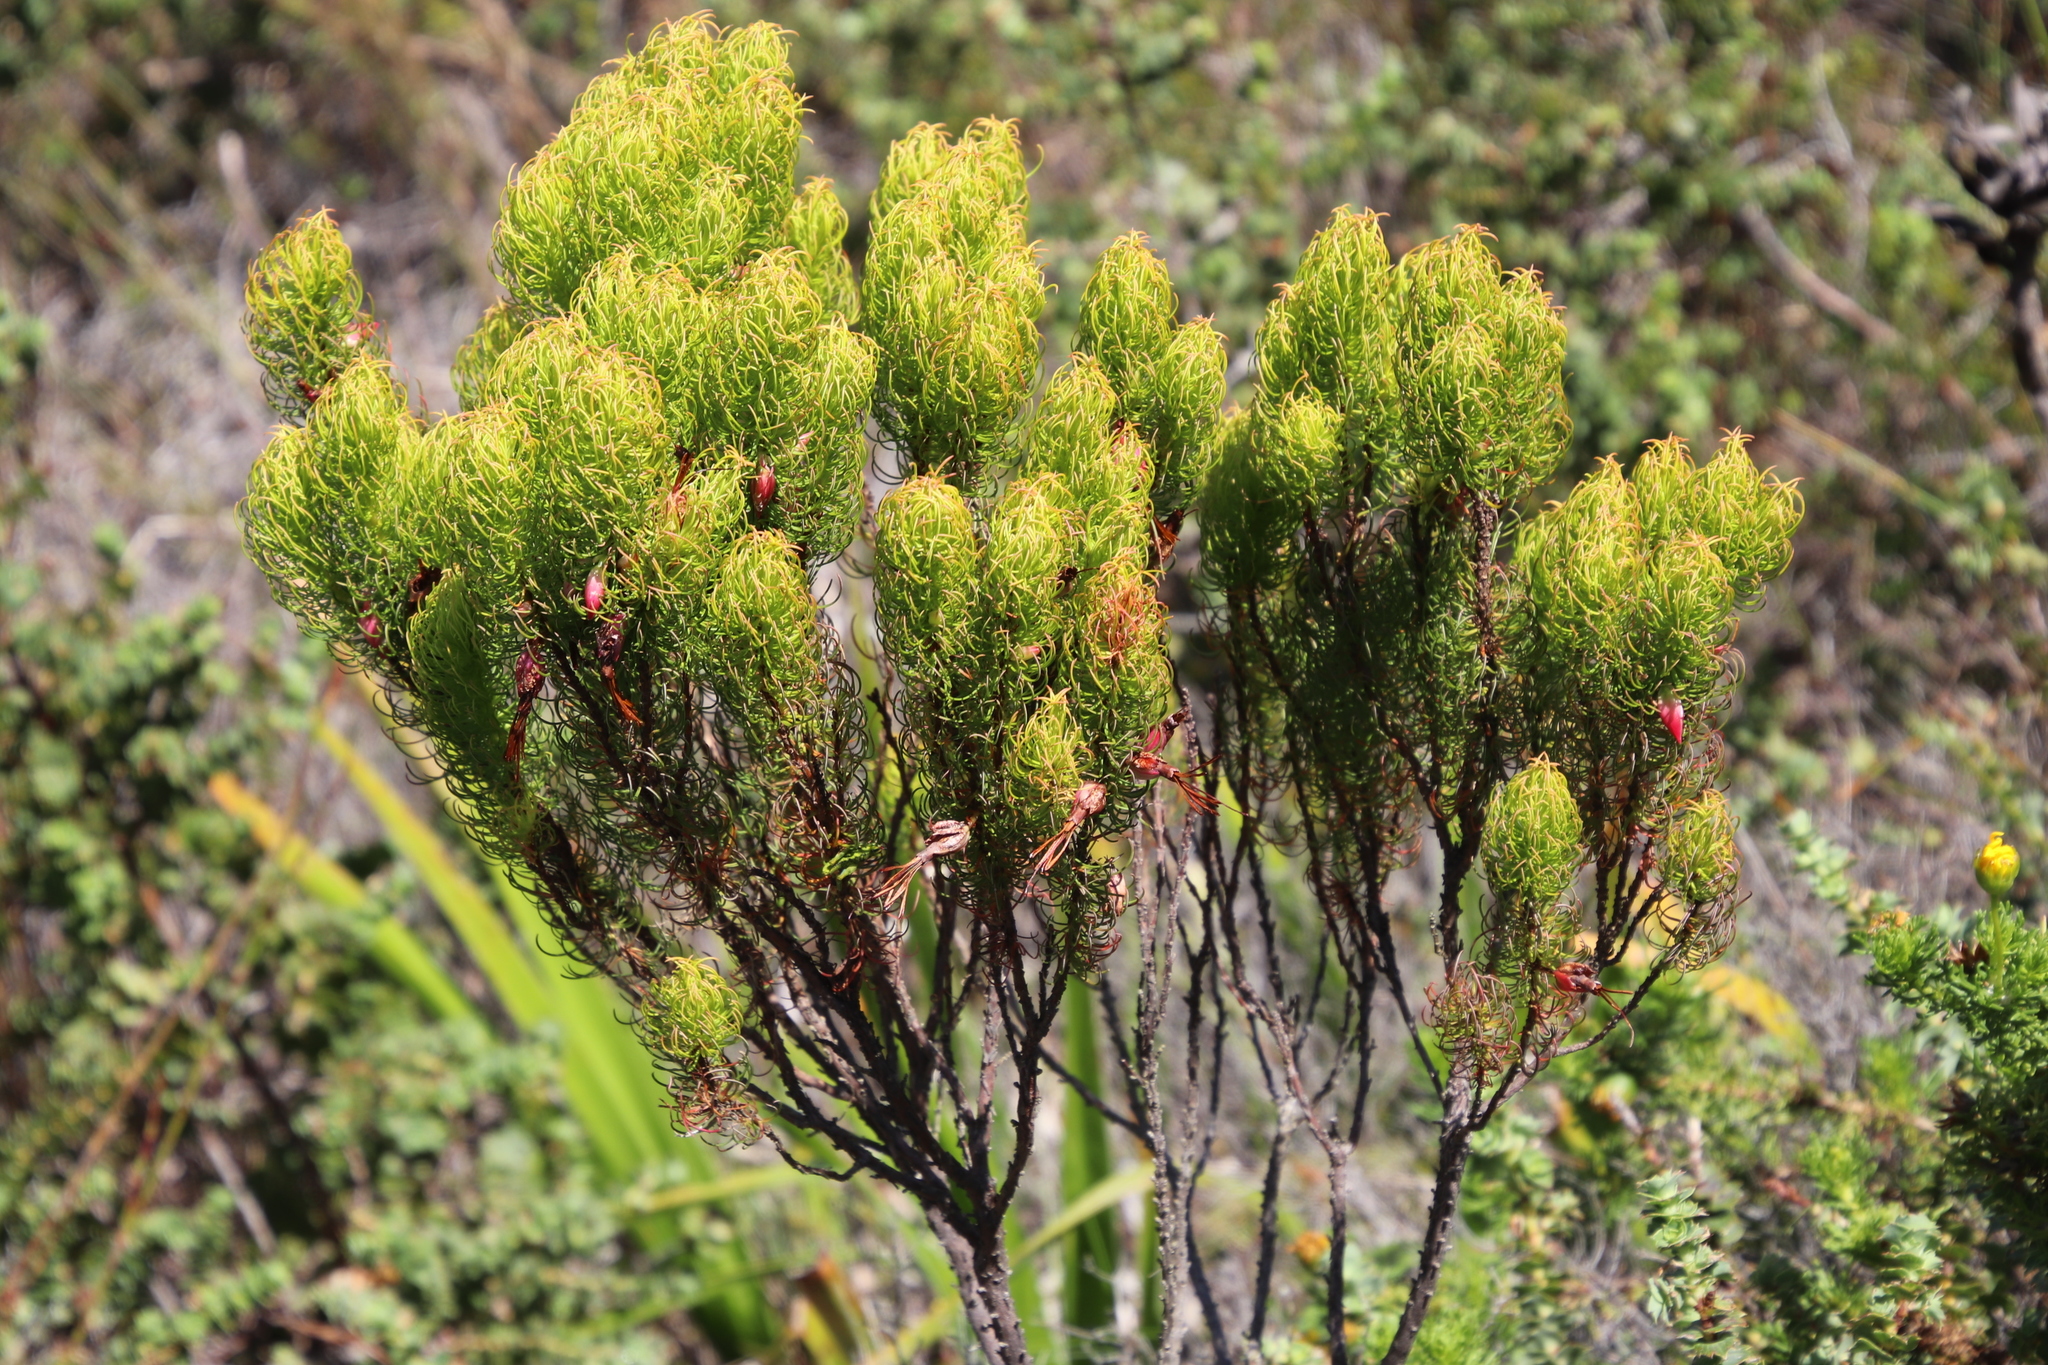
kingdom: Plantae
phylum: Tracheophyta
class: Magnoliopsida
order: Ericales
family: Ericaceae
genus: Erica
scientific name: Erica plukenetii
